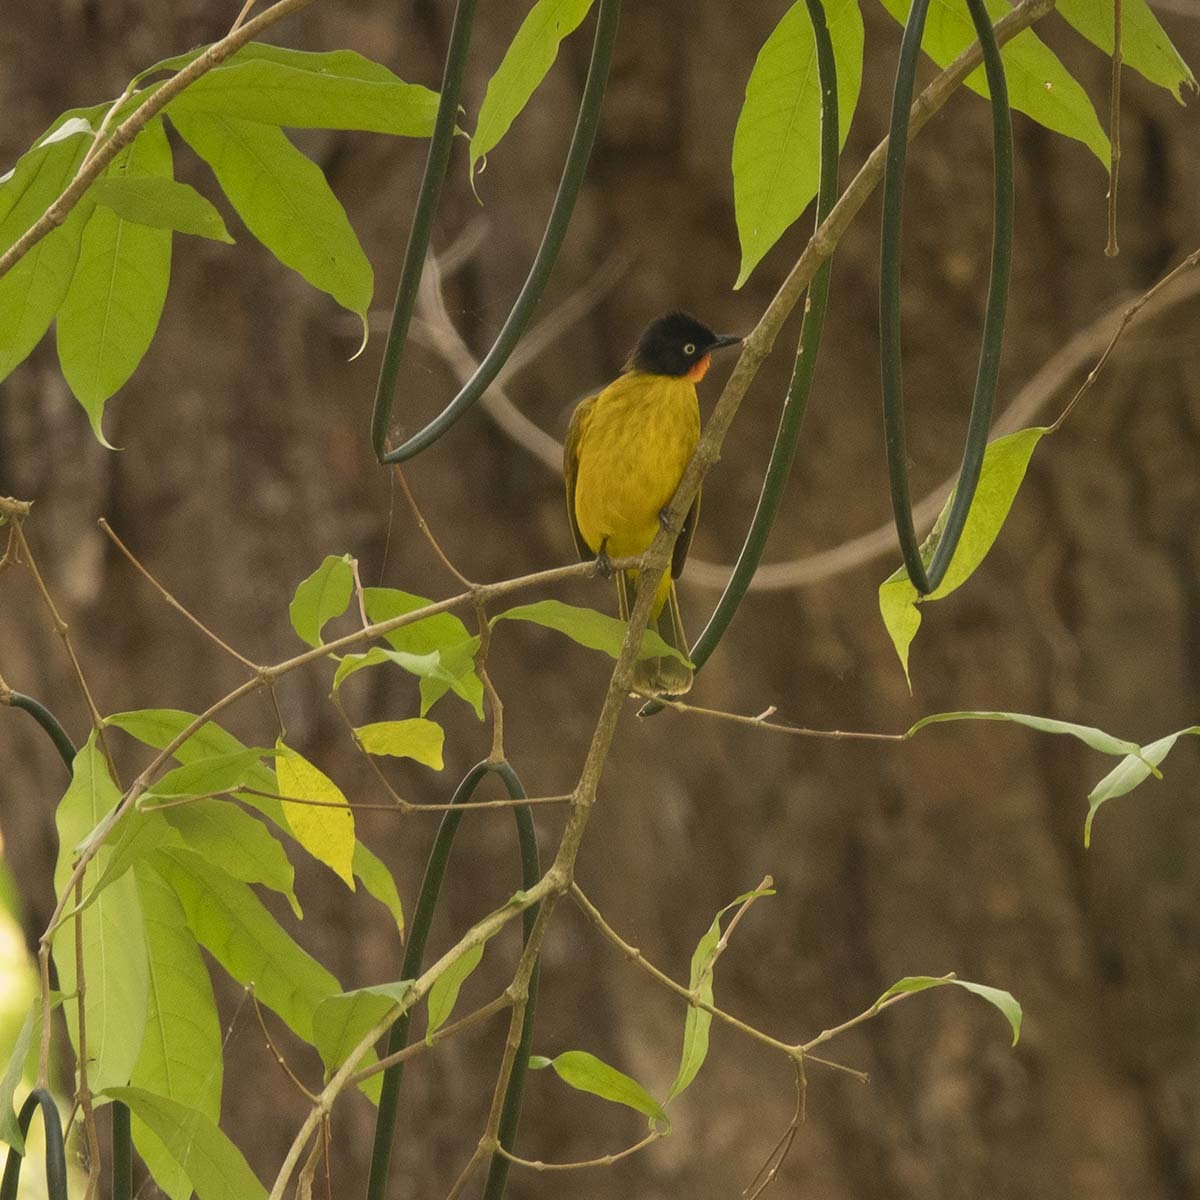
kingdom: Animalia
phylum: Chordata
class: Aves
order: Passeriformes
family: Pycnonotidae
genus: Pycnonotus
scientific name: Pycnonotus gularis
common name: Flame-throated bulbul
